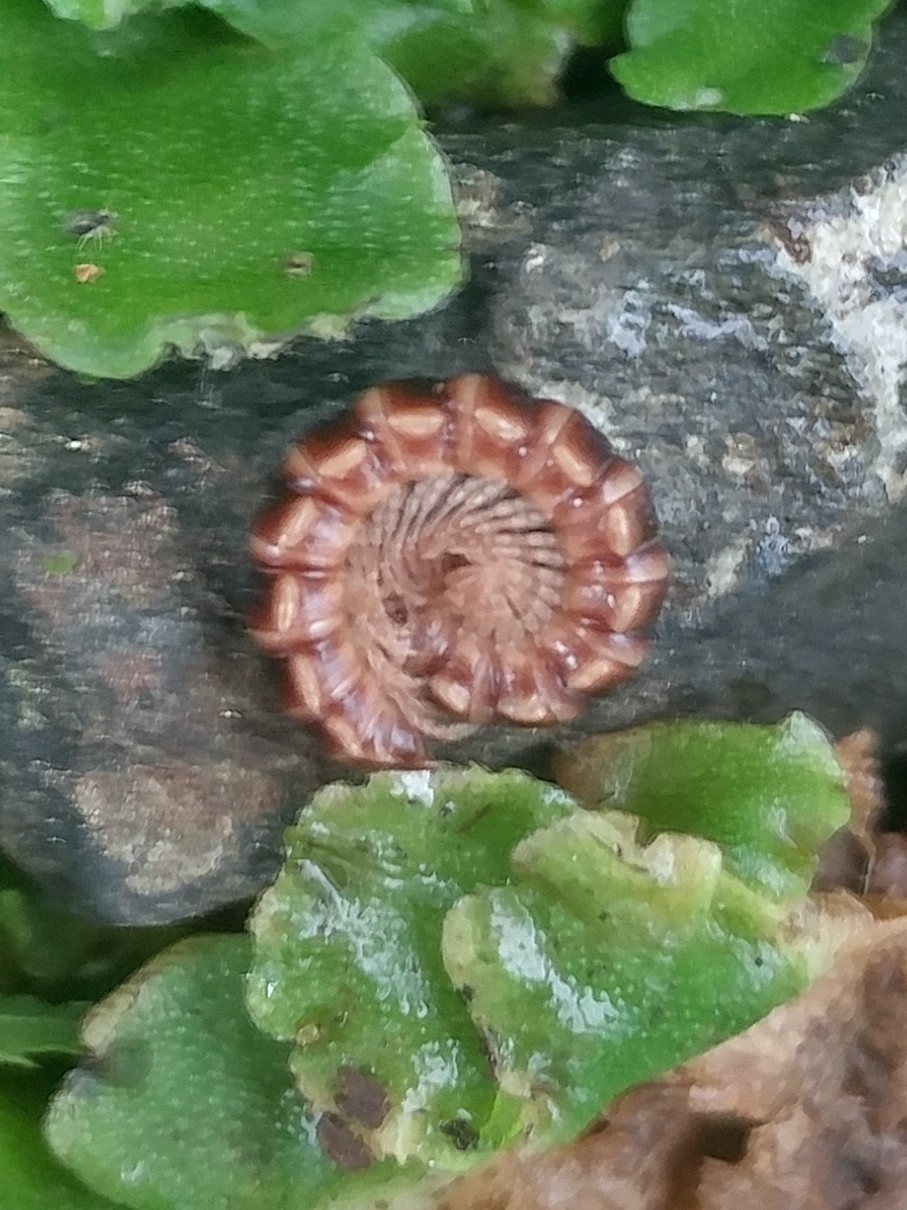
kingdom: Animalia
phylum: Arthropoda
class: Diplopoda
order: Polydesmida
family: Paradoxosomatidae
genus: Oxidus
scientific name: Oxidus gracilis
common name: Greenhouse millipede
